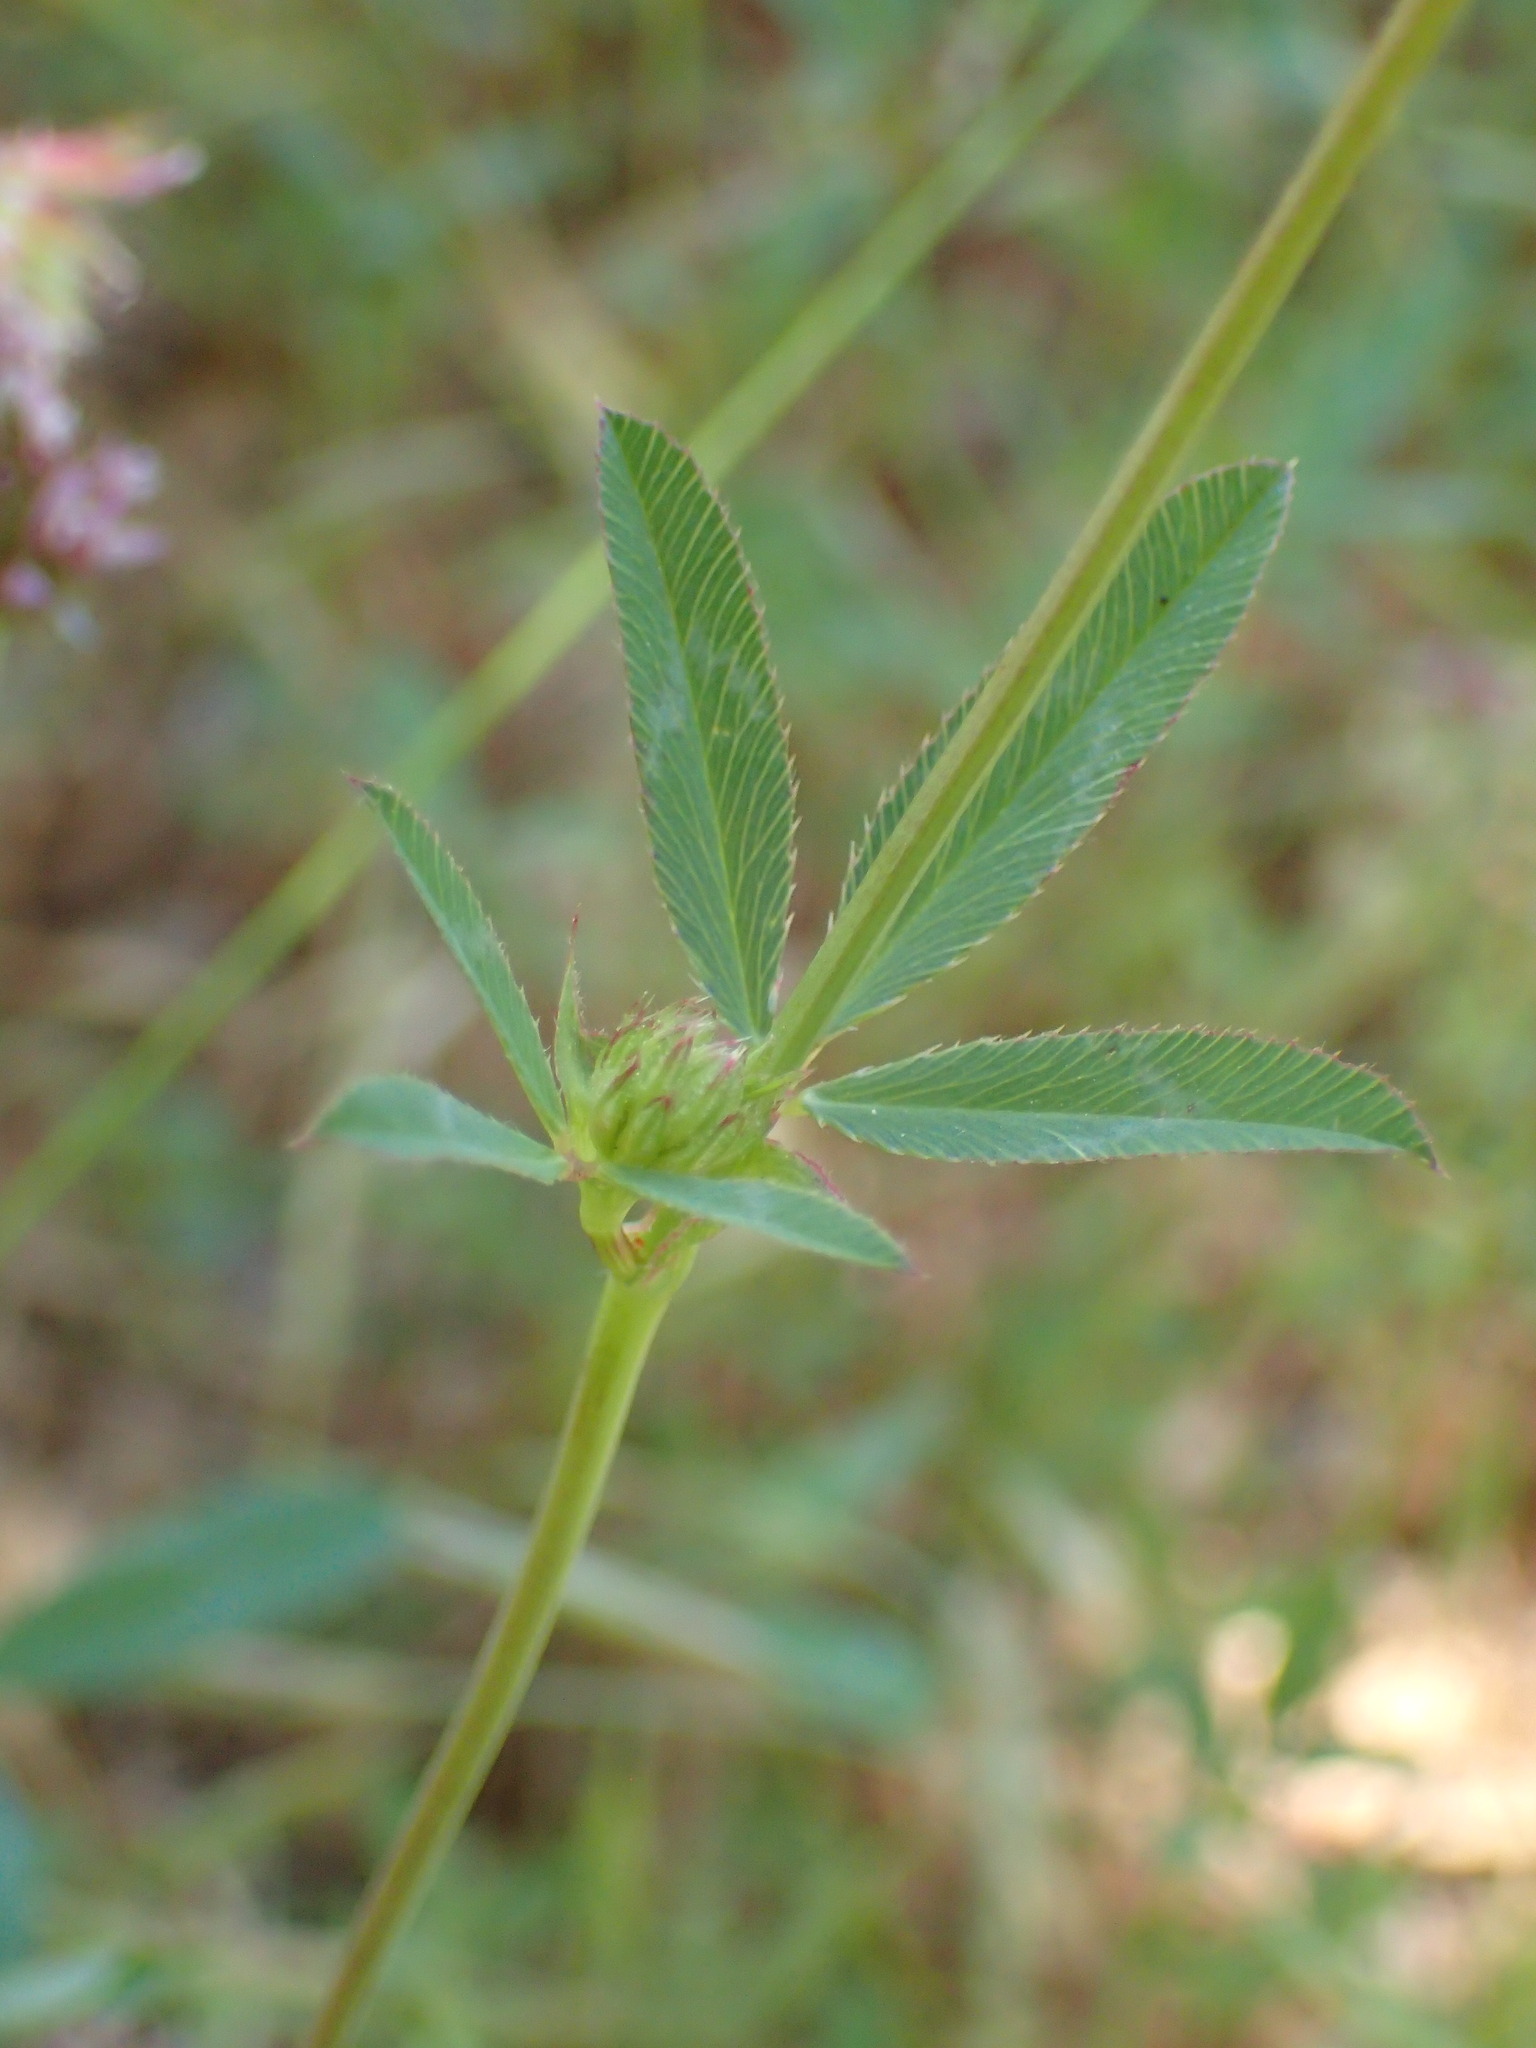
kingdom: Plantae
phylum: Tracheophyta
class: Magnoliopsida
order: Fabales
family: Fabaceae
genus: Trifolium
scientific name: Trifolium ciliolatum
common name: Foothill clover
